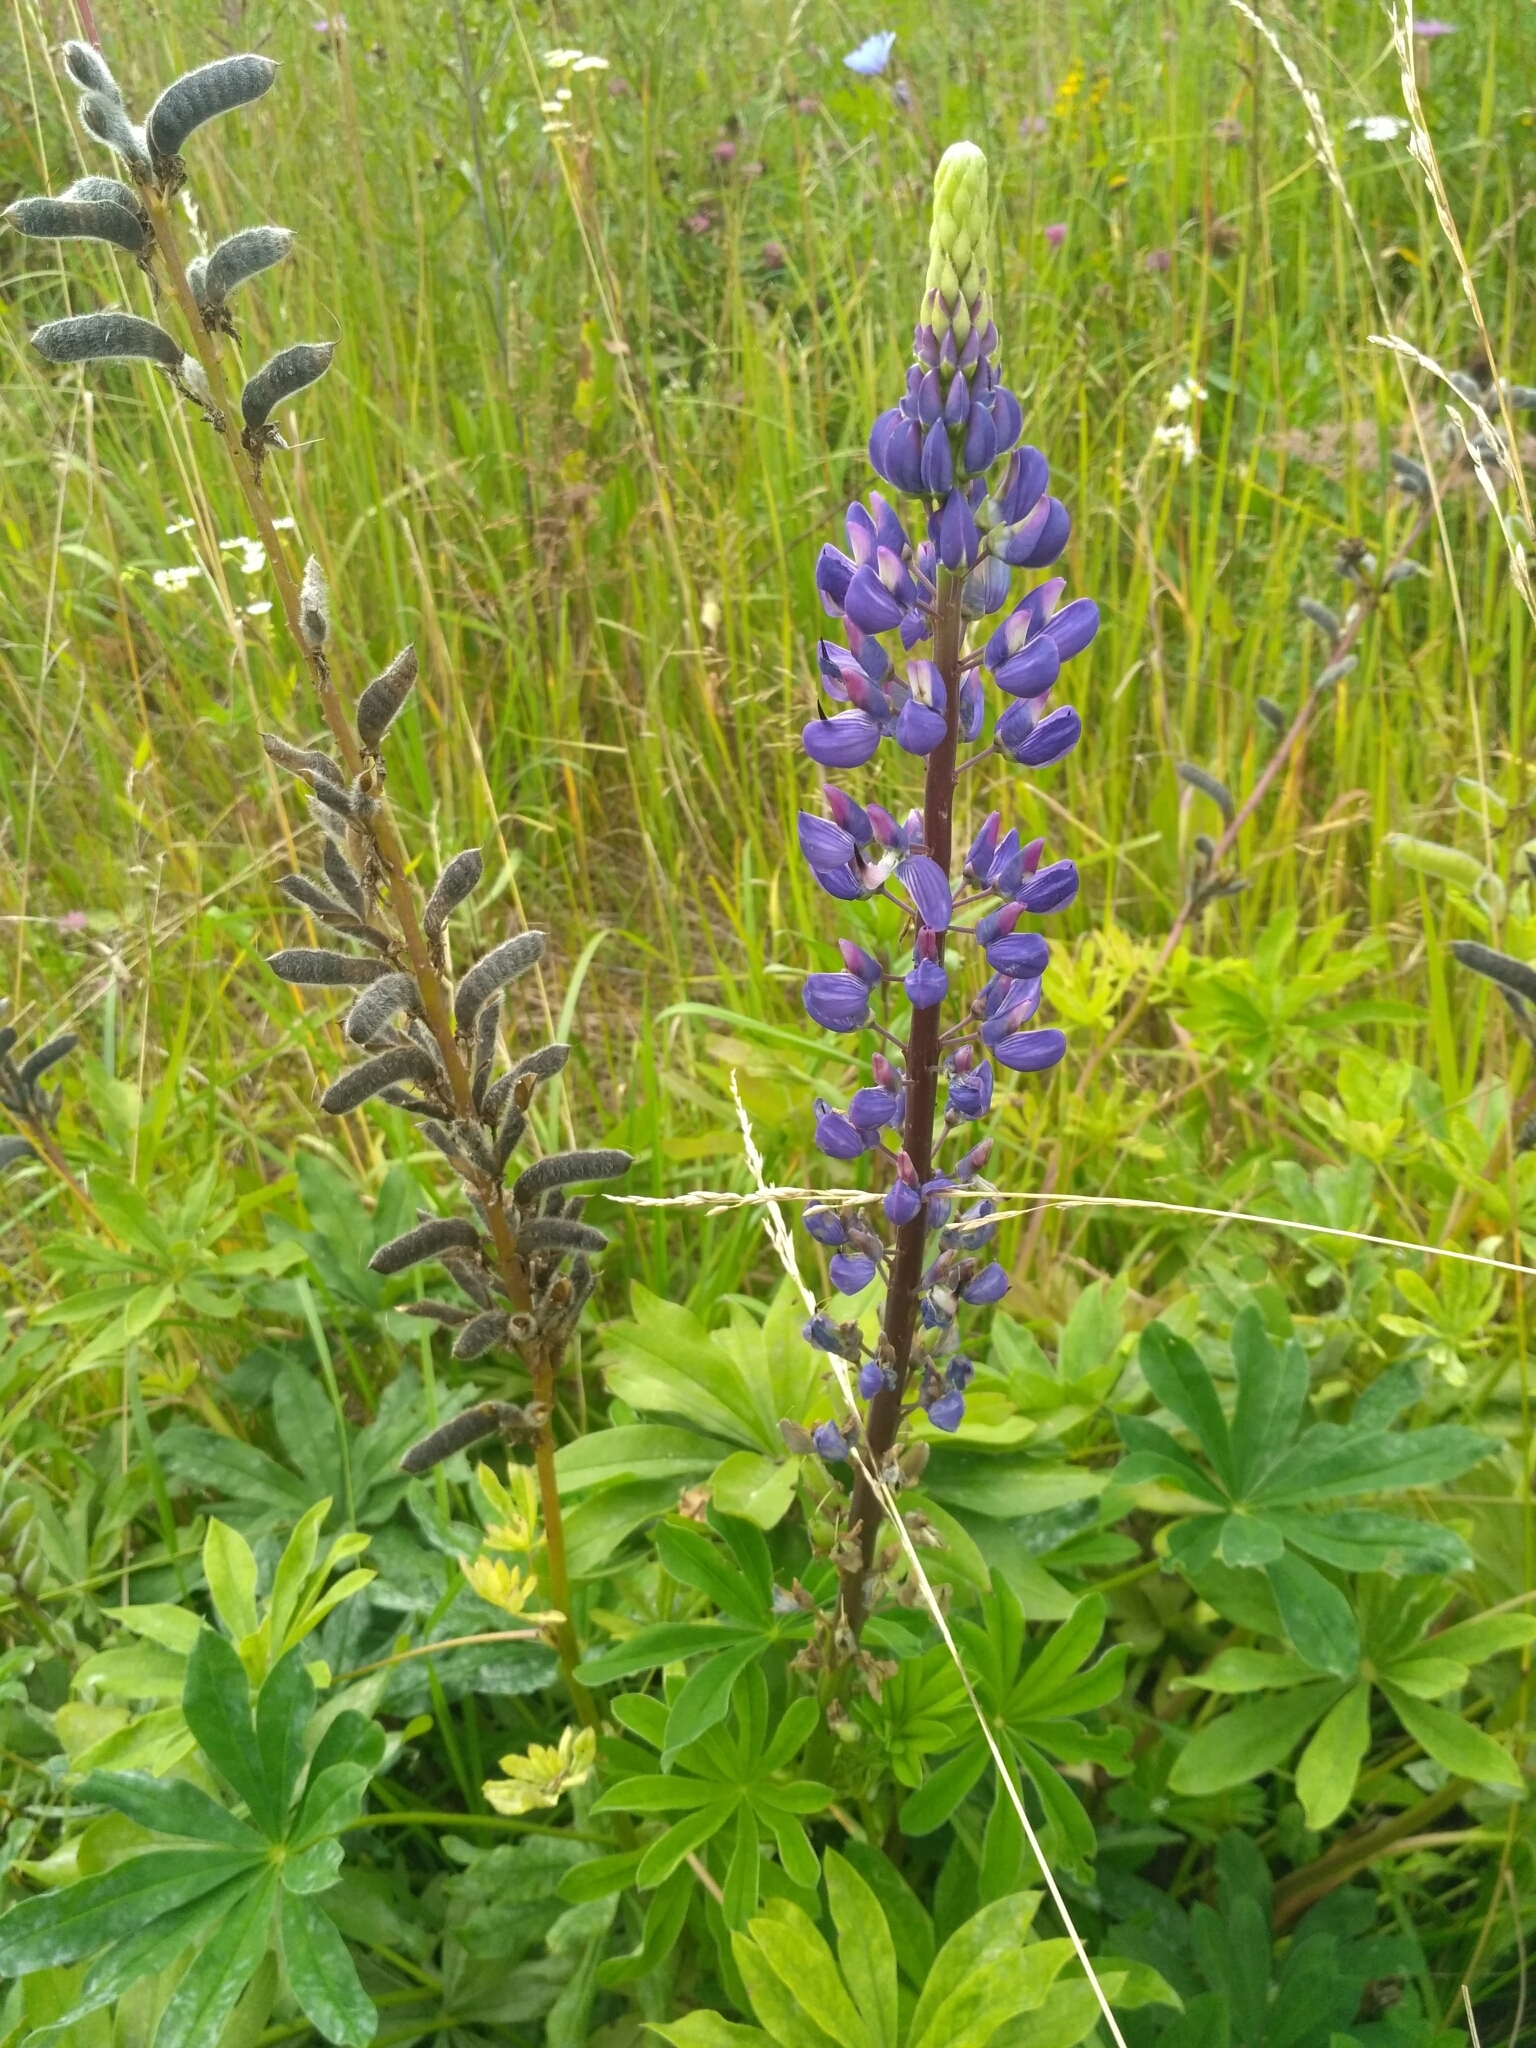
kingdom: Plantae
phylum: Tracheophyta
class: Magnoliopsida
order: Fabales
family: Fabaceae
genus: Lupinus
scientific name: Lupinus polyphyllus
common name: Garden lupin
